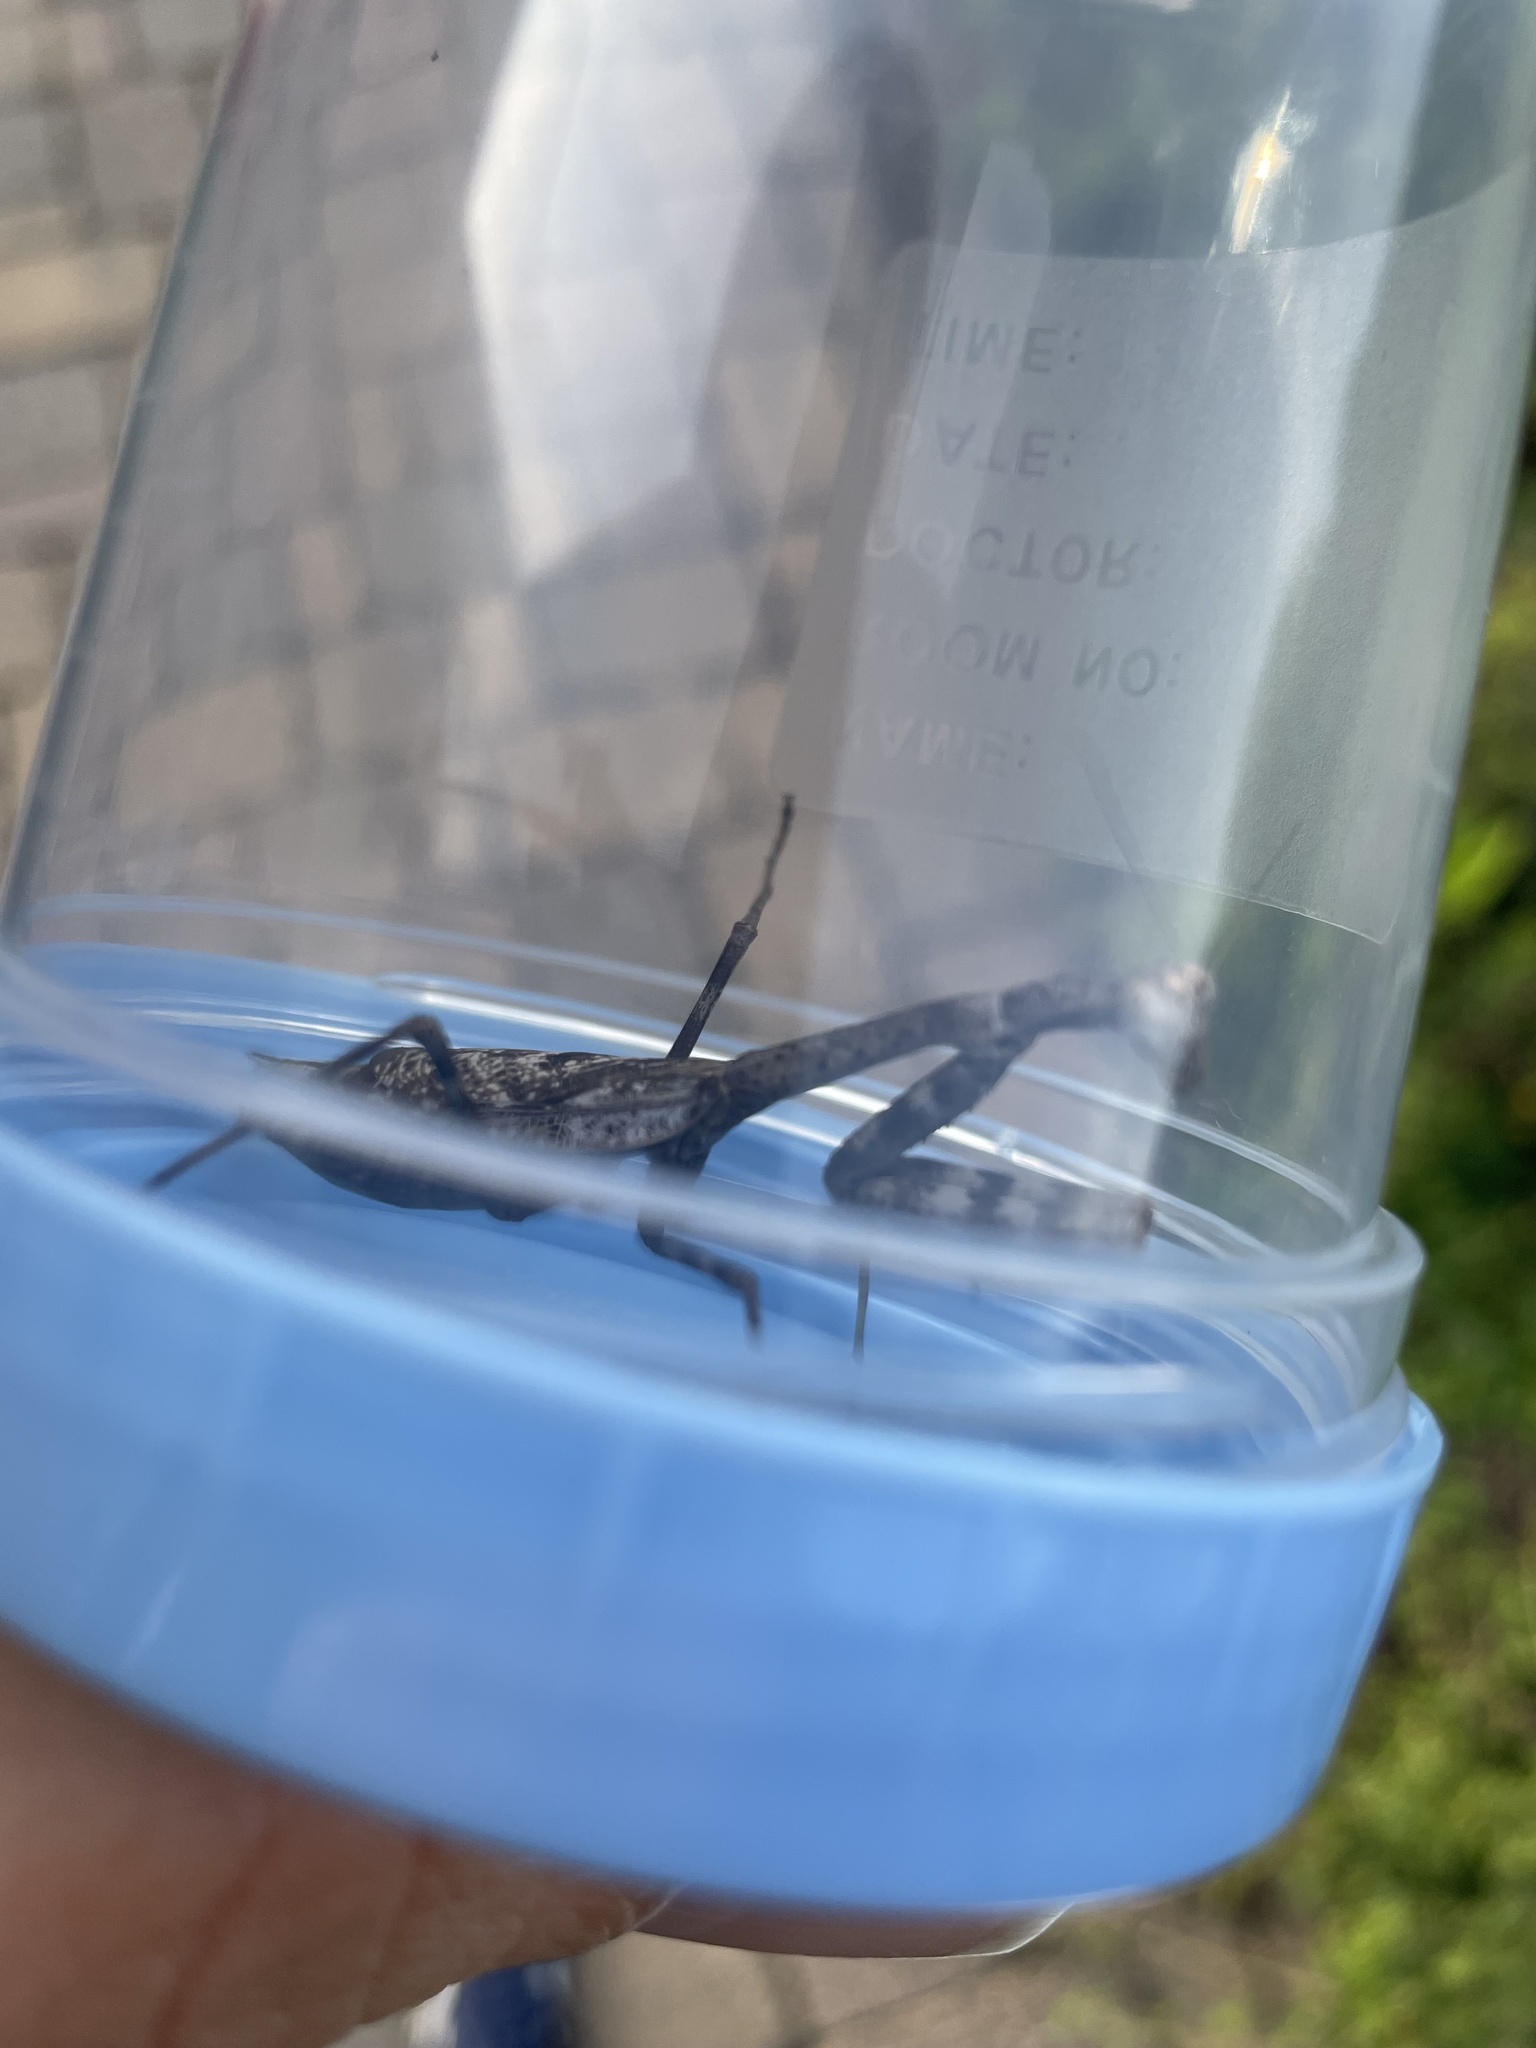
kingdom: Animalia
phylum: Arthropoda
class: Insecta
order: Mantodea
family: Mantidae
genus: Stagmomantis
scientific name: Stagmomantis carolina
